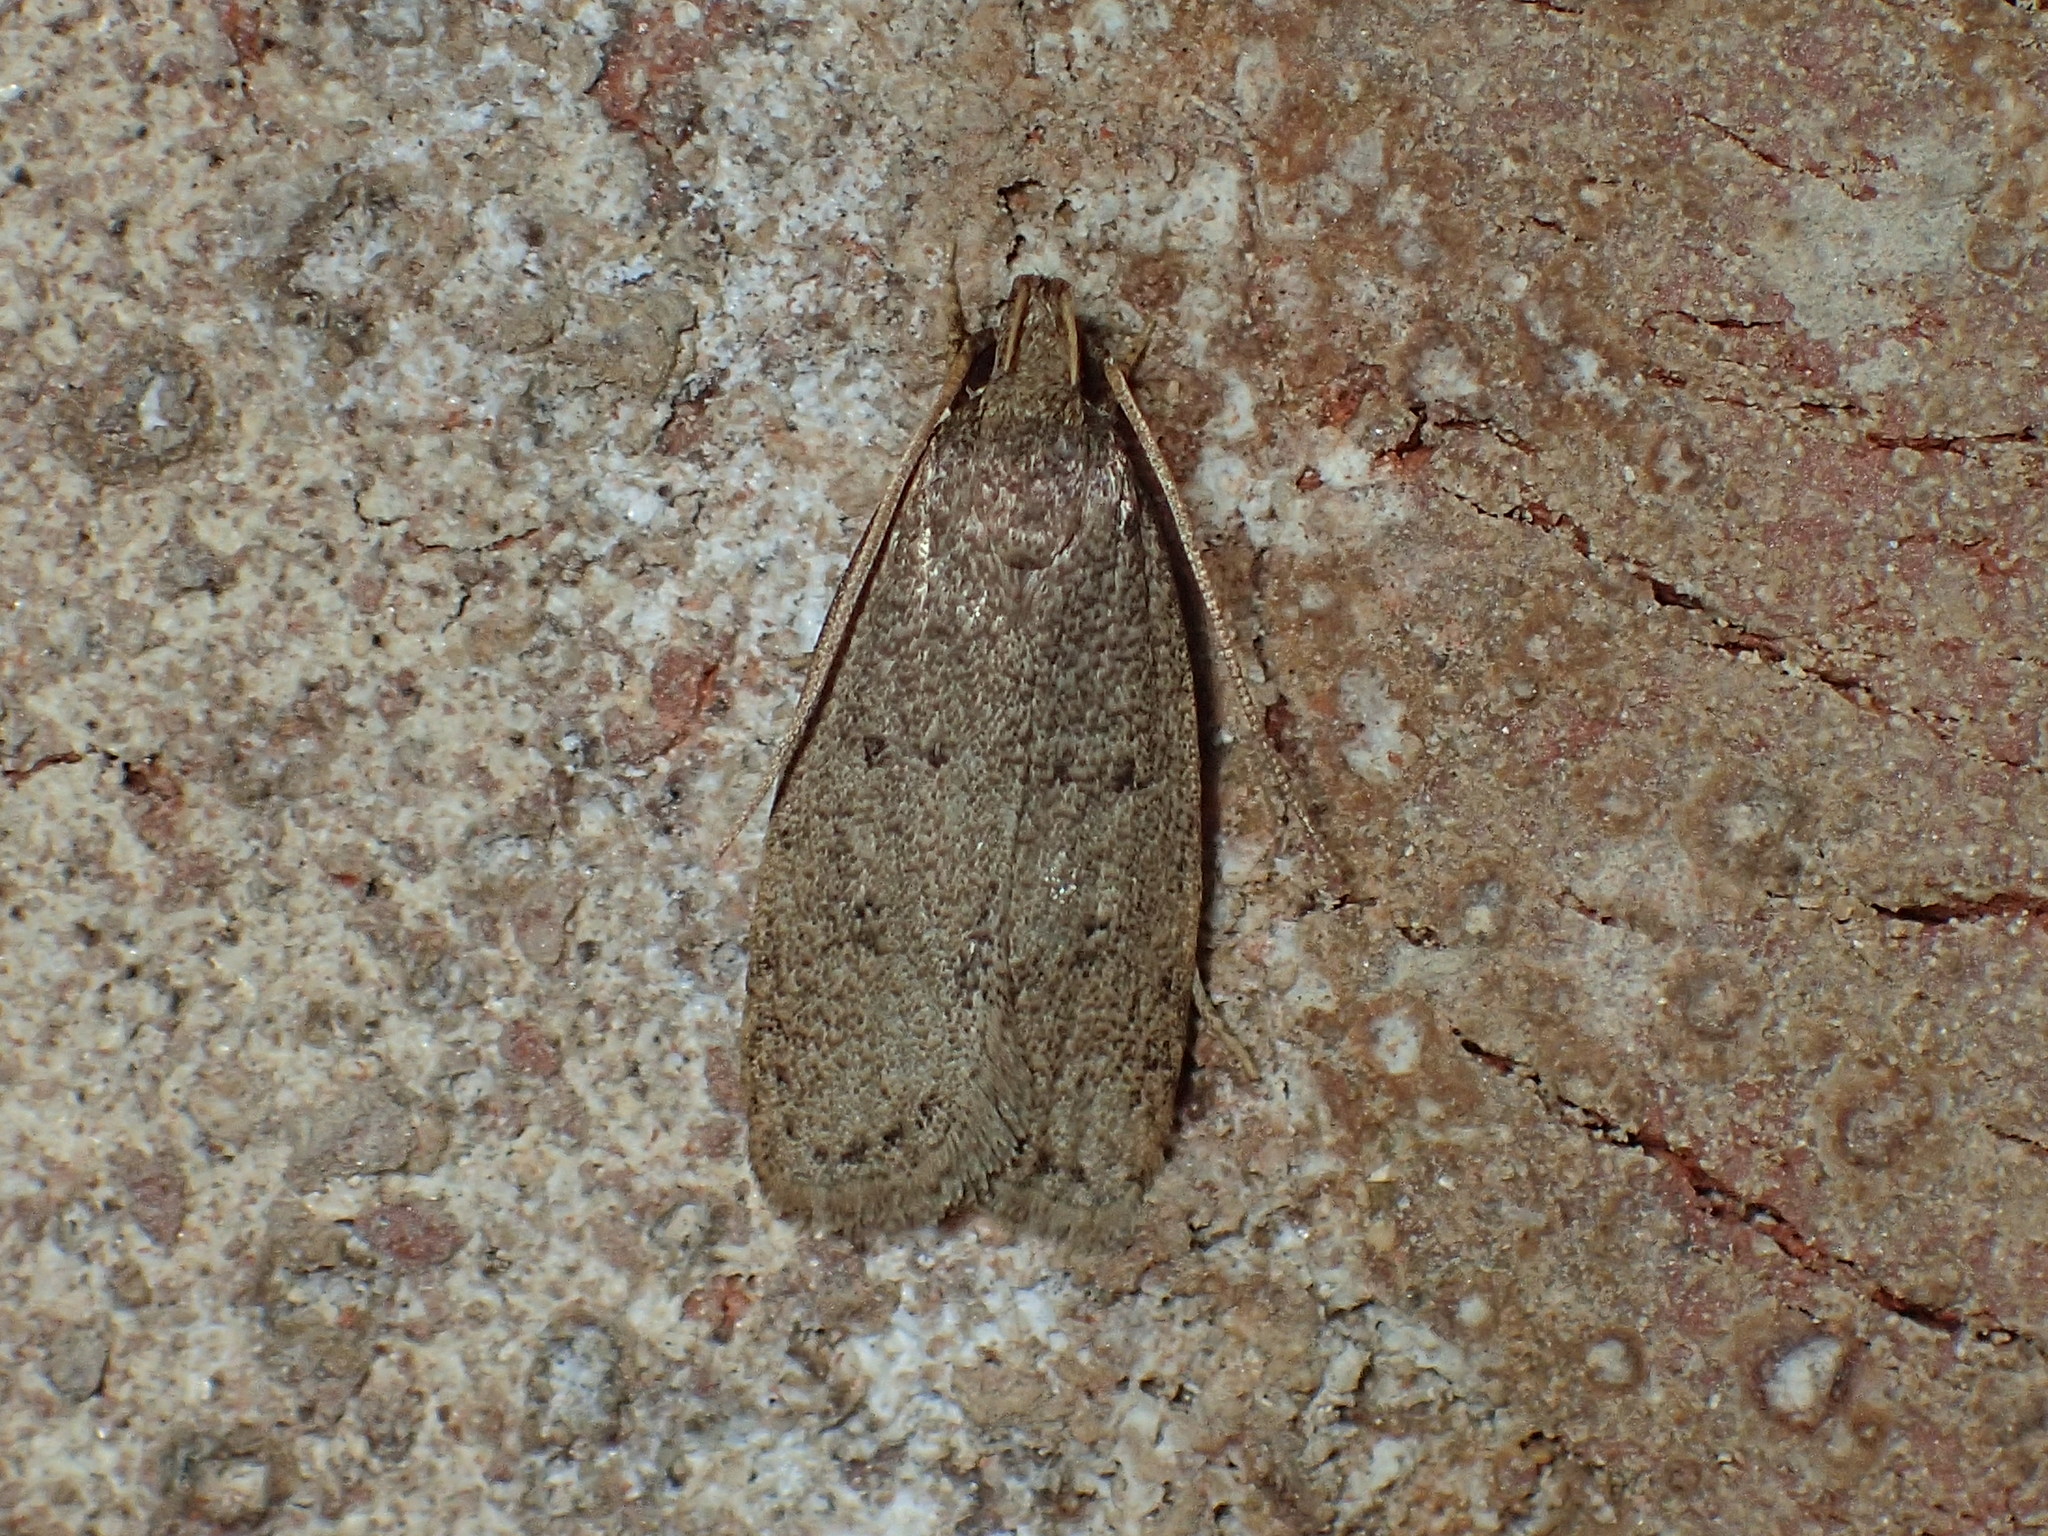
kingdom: Animalia
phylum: Arthropoda
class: Insecta
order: Lepidoptera
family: Autostichidae
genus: Autosticha
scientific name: Autosticha kyotensis
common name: Kyoto moth
